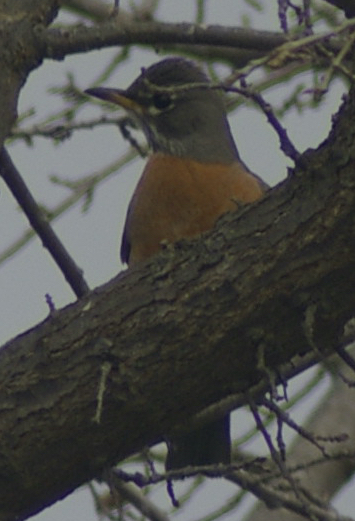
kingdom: Animalia
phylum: Chordata
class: Aves
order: Passeriformes
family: Turdidae
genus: Turdus
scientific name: Turdus migratorius
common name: American robin
